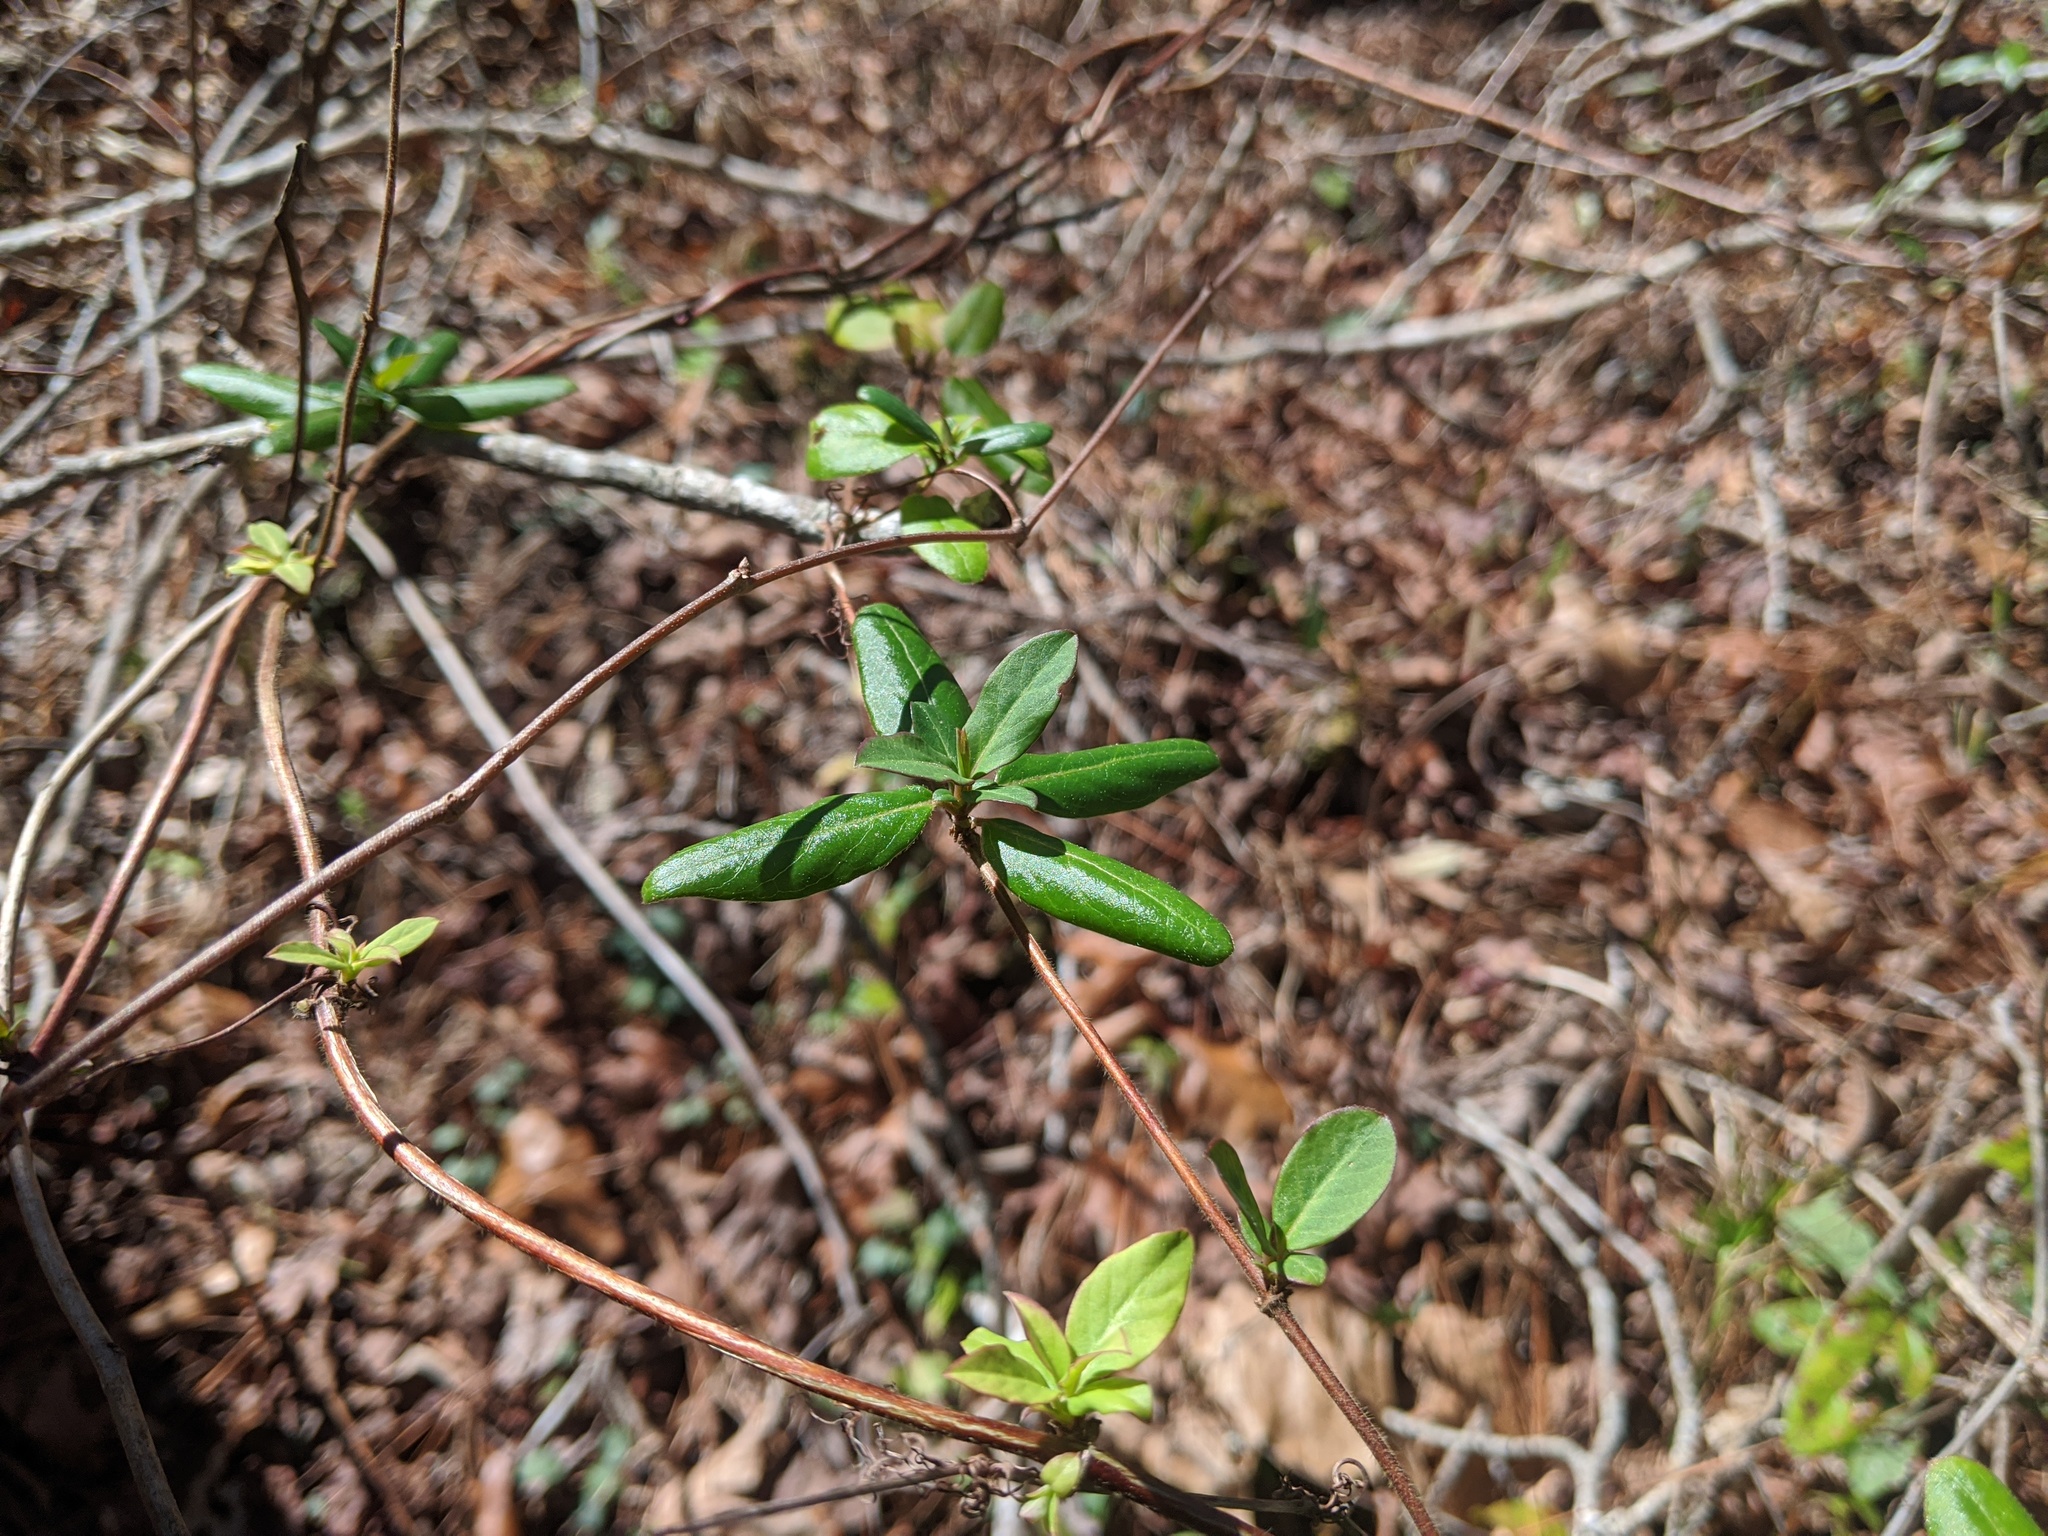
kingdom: Plantae
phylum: Tracheophyta
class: Magnoliopsida
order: Dipsacales
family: Caprifoliaceae
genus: Lonicera
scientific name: Lonicera japonica
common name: Japanese honeysuckle
